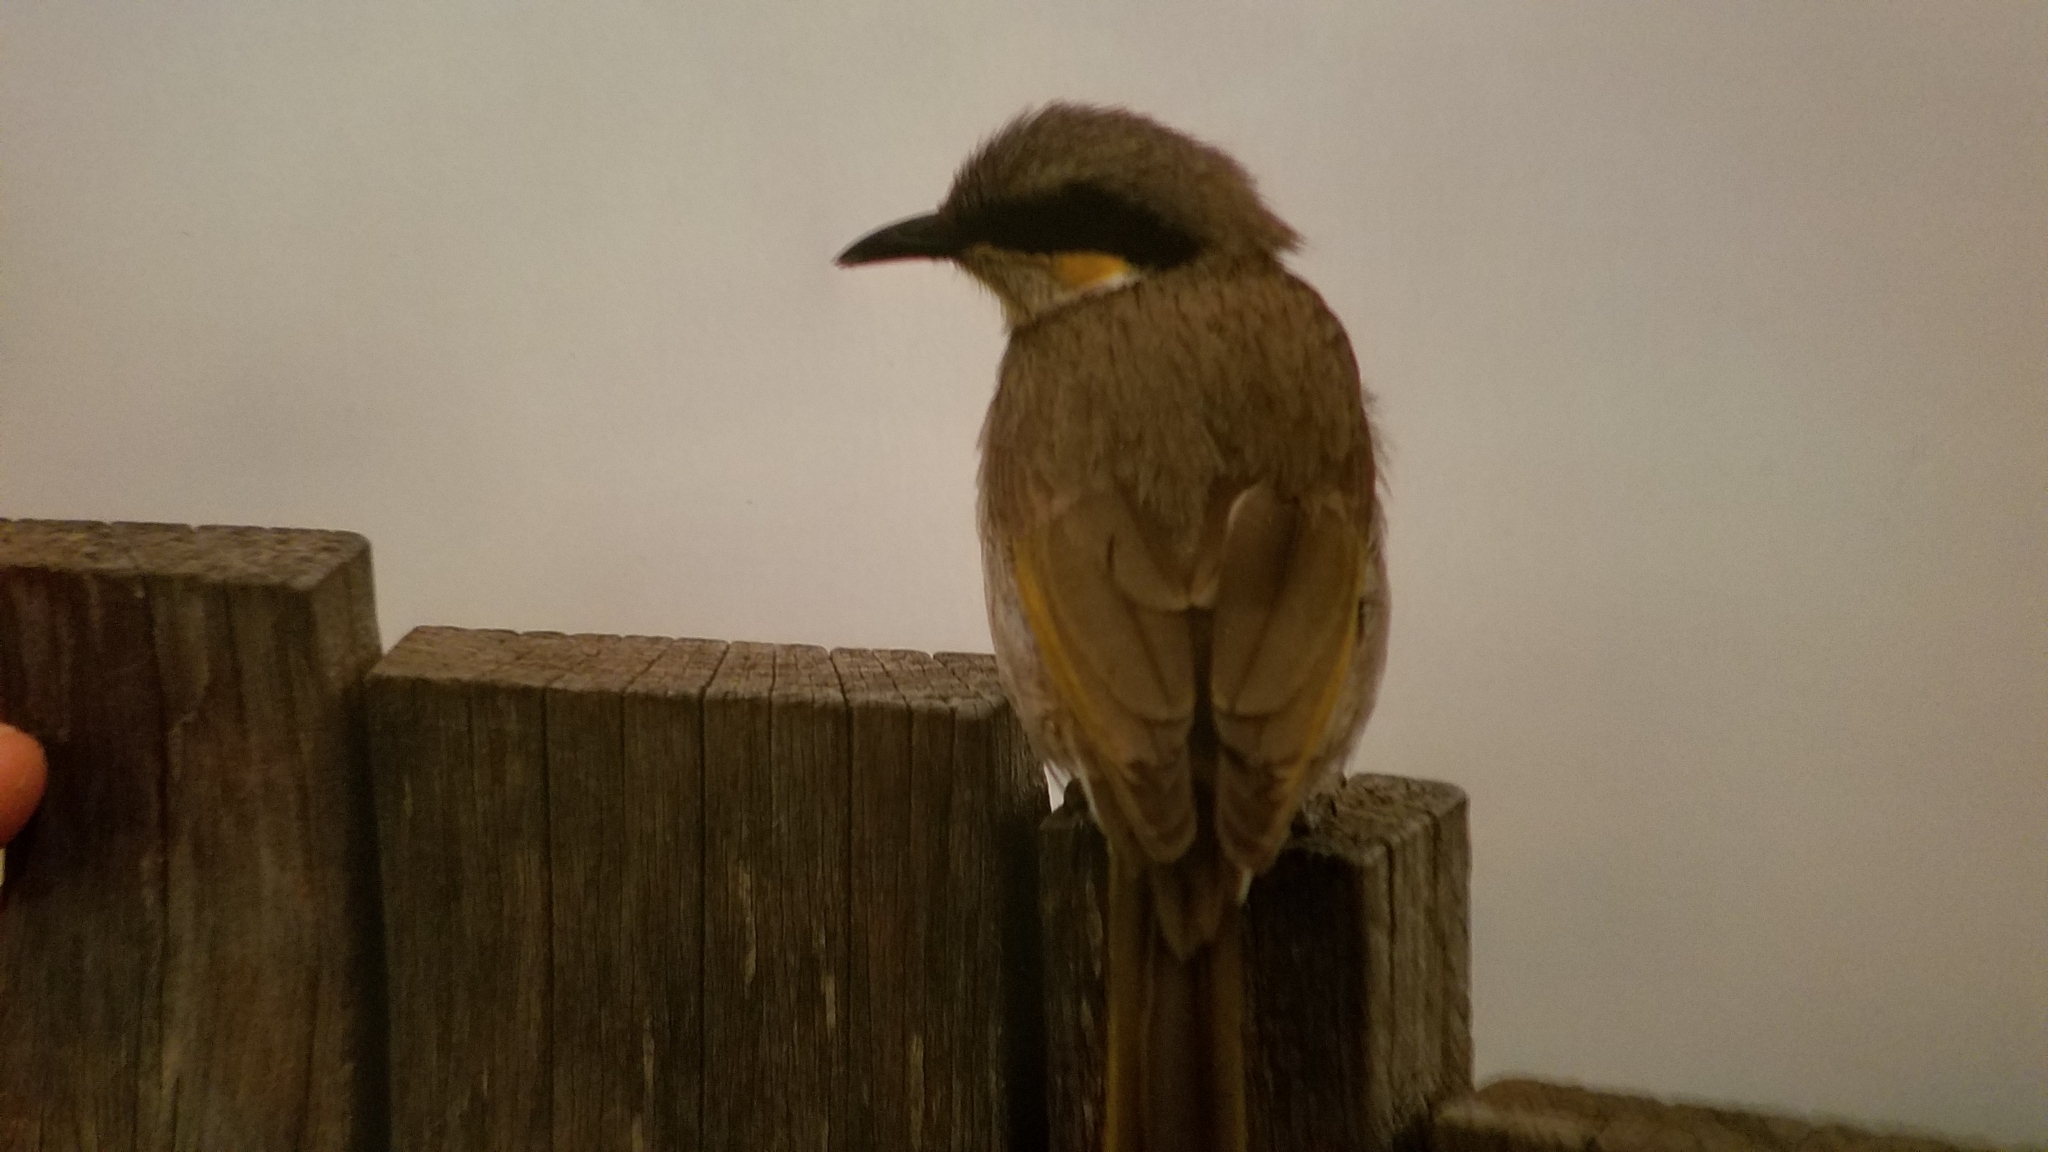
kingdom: Animalia
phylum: Chordata
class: Aves
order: Passeriformes
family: Meliphagidae
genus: Gavicalis
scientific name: Gavicalis virescens
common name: Singing honeyeater
